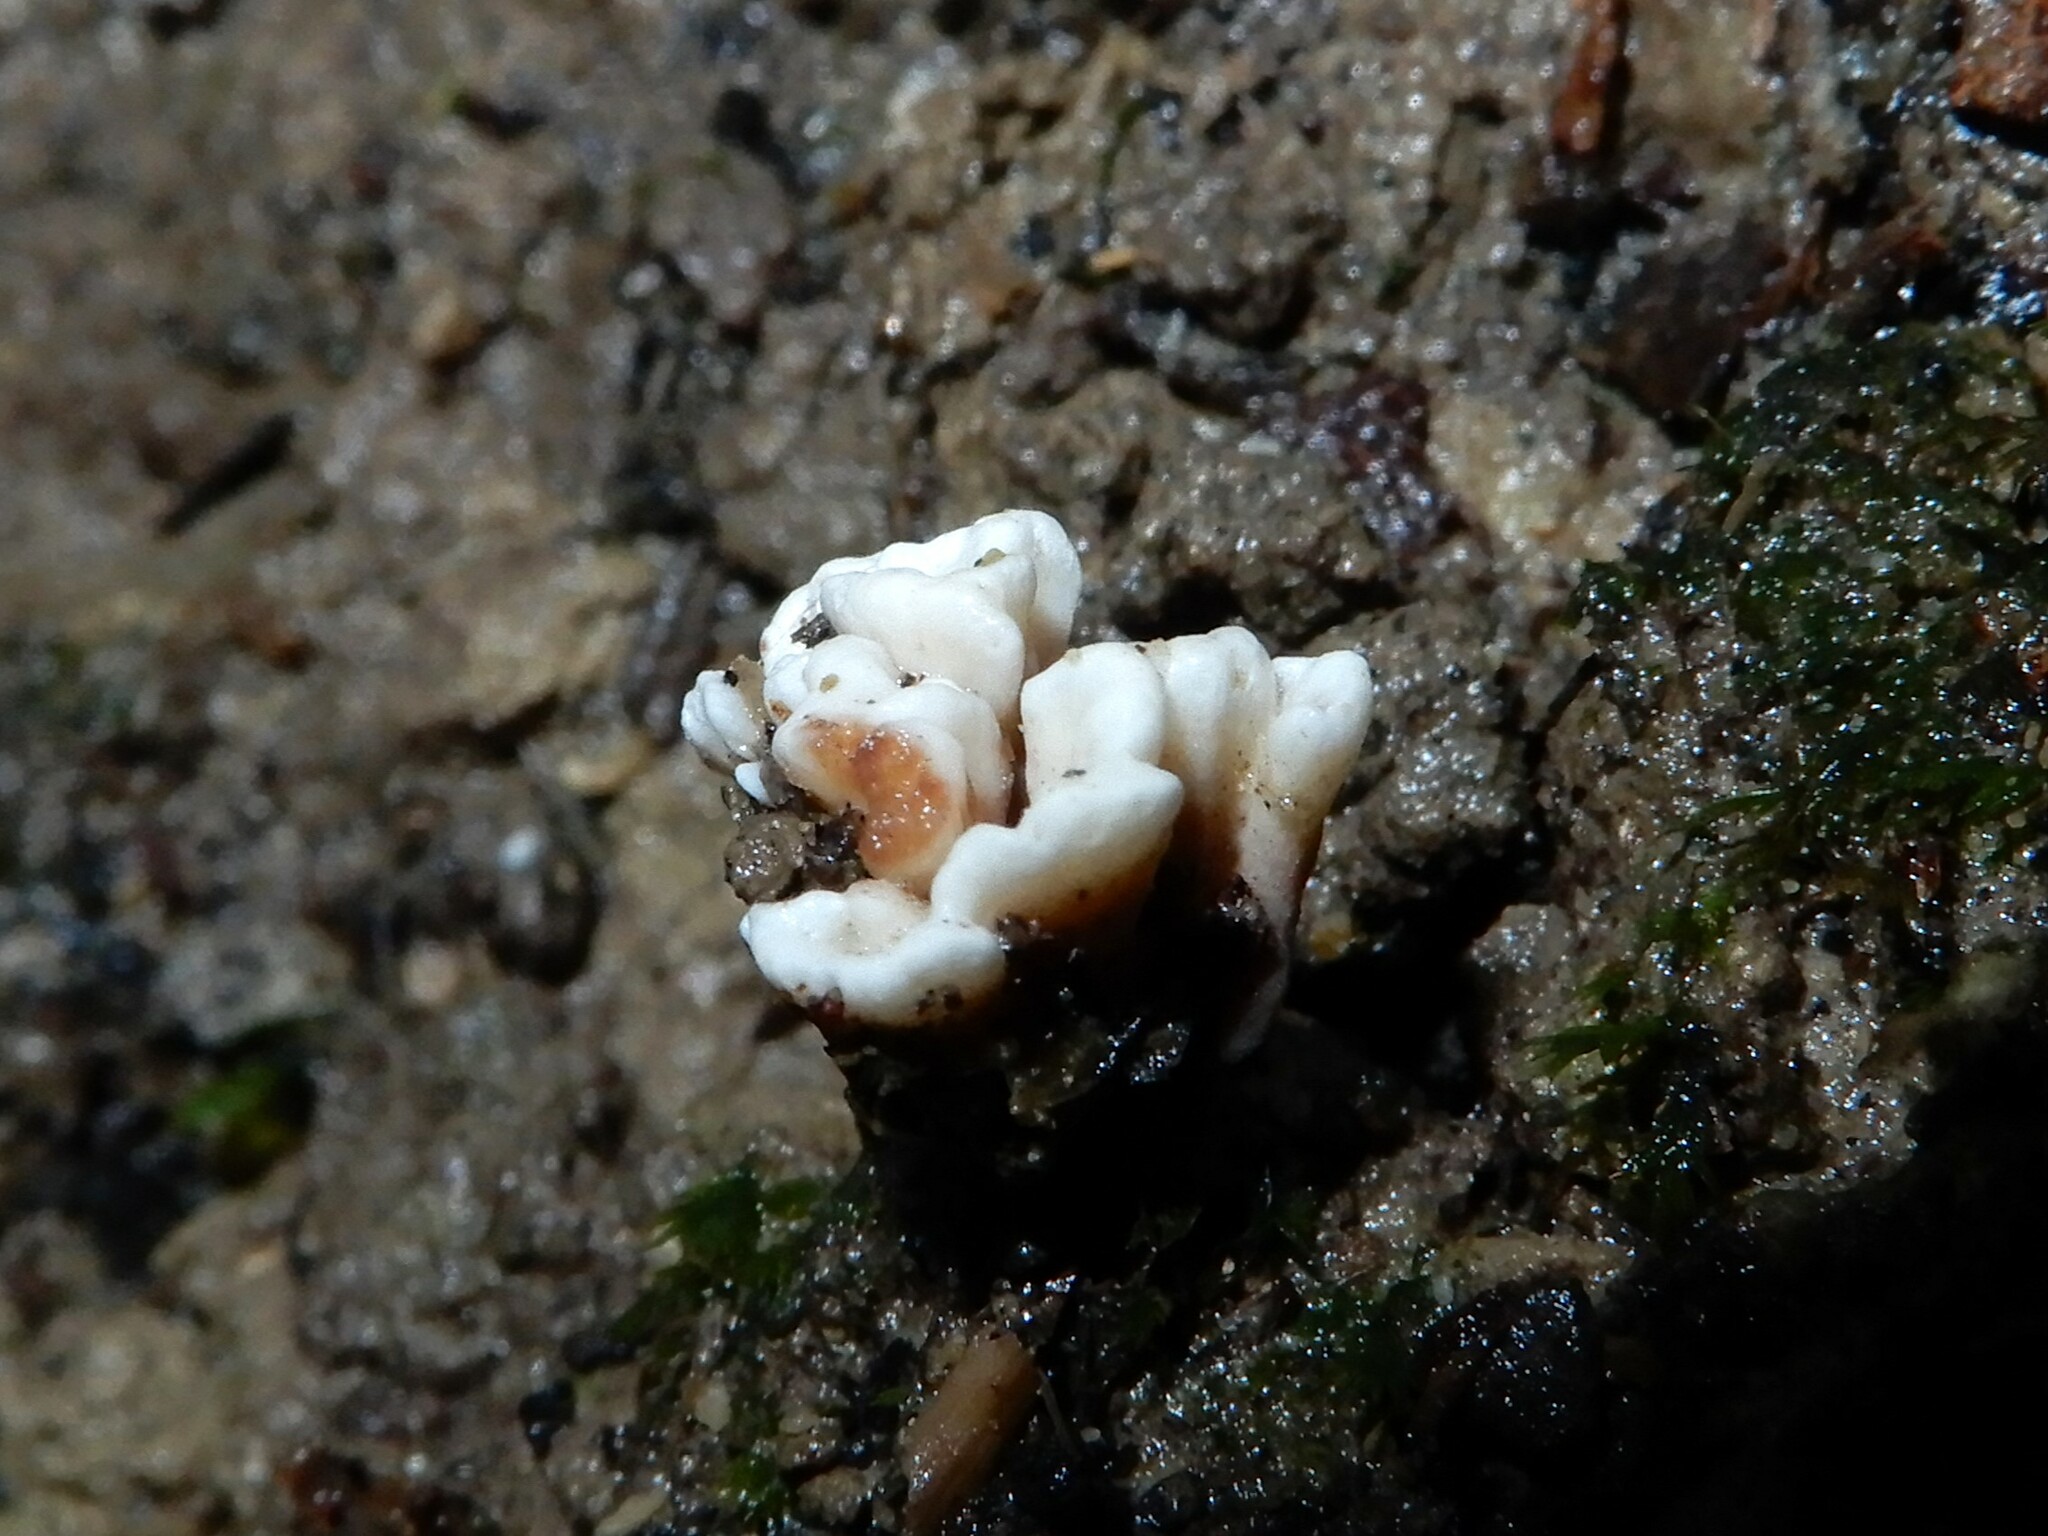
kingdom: Fungi
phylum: Basidiomycota
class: Agaricomycetes
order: Stereopsidales
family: Stereopsidaceae
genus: Stereopsis
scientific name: Stereopsis hiscens
